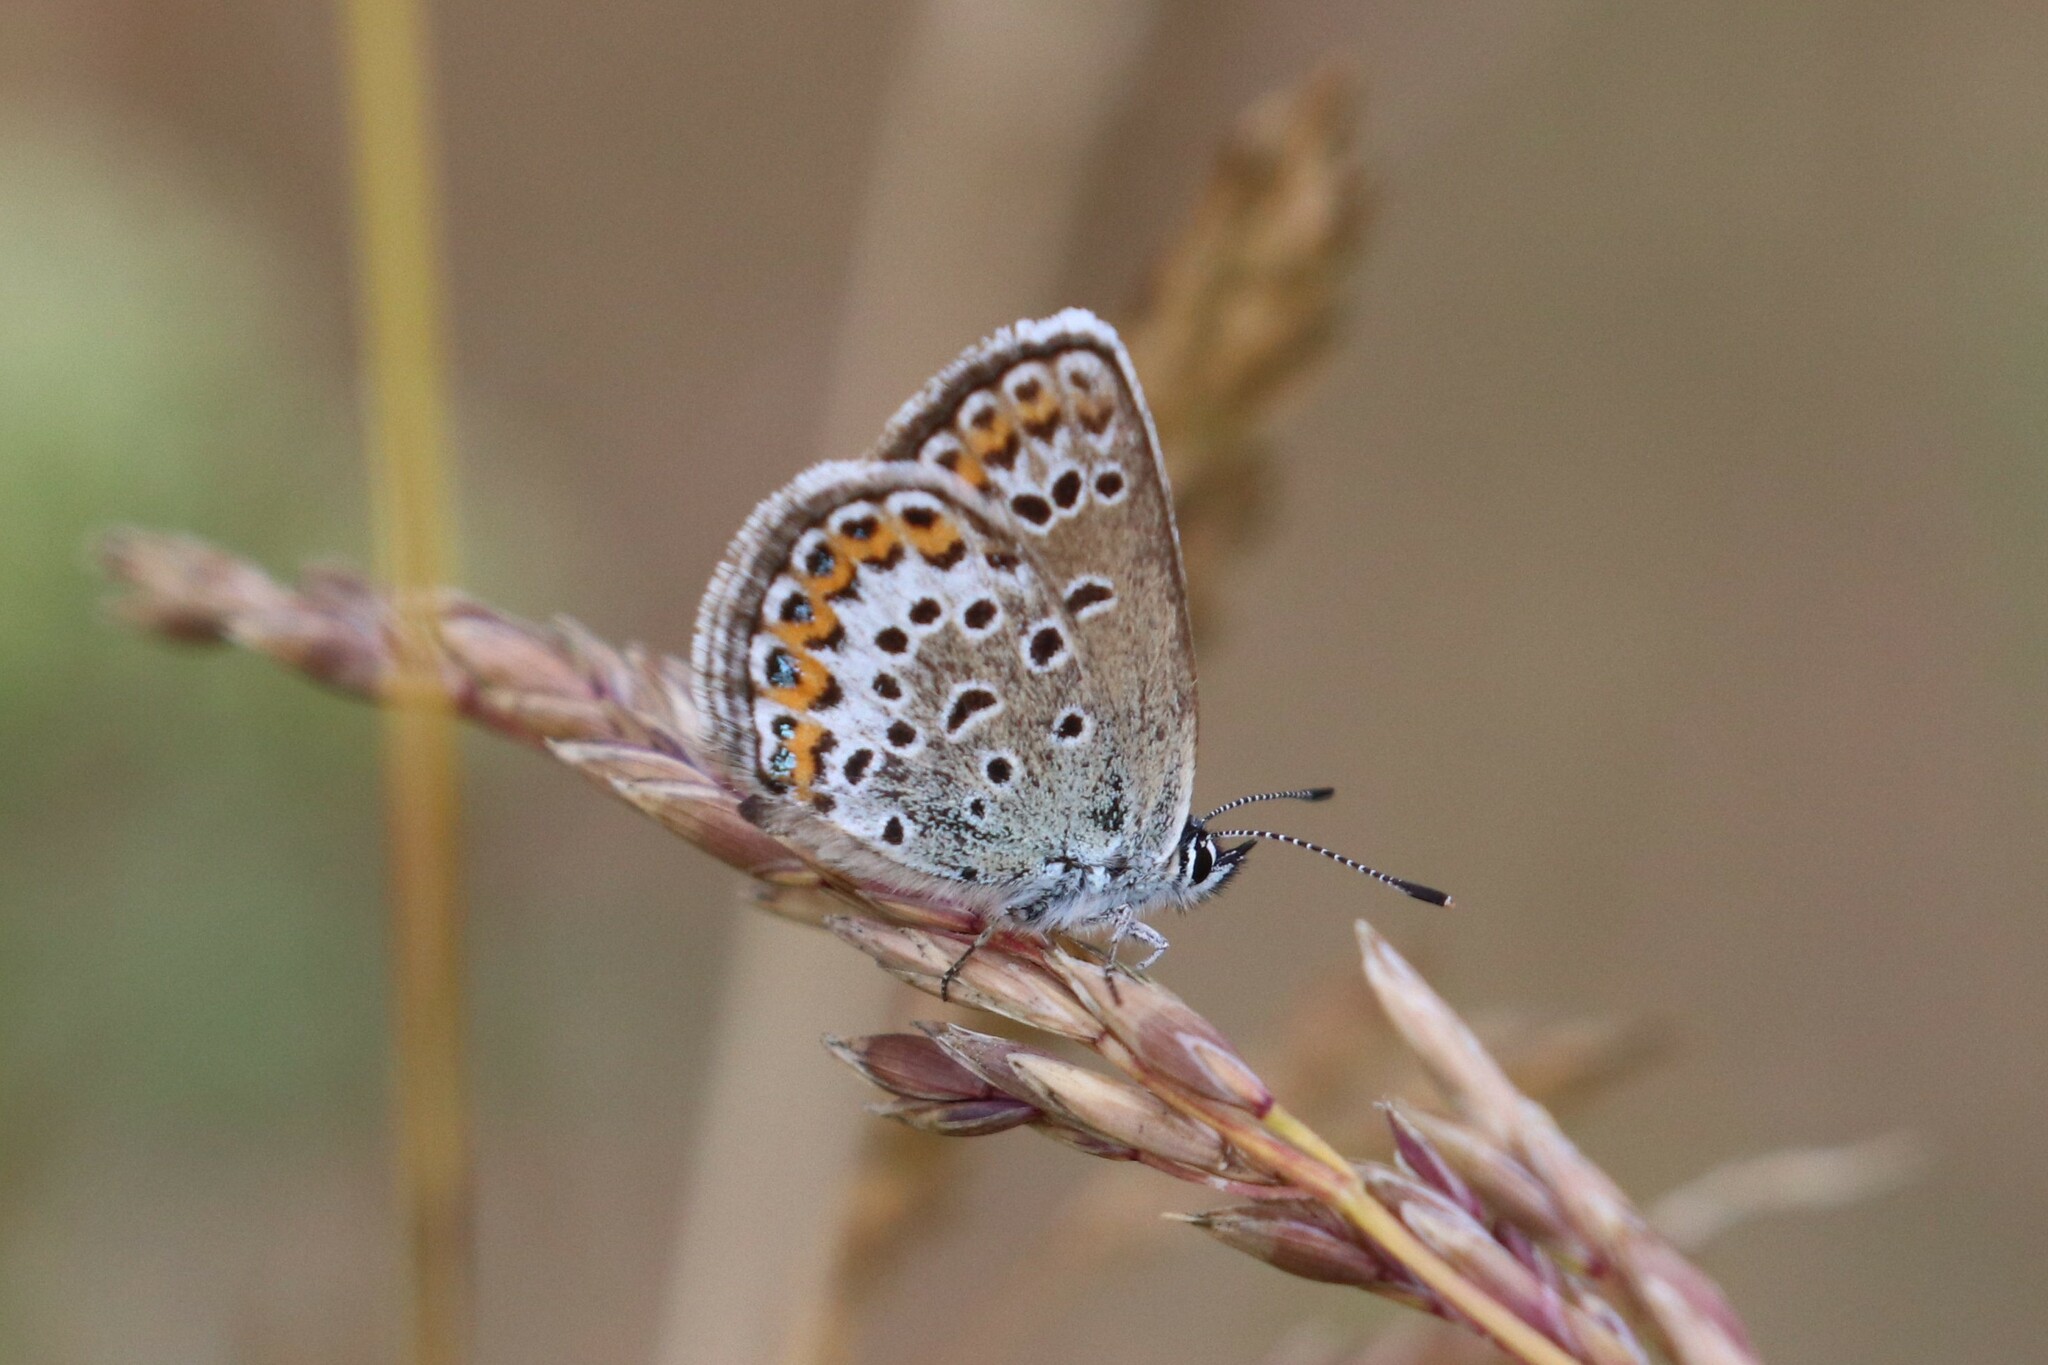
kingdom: Animalia
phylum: Arthropoda
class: Insecta
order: Lepidoptera
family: Lycaenidae
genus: Plebejus
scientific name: Plebejus argus
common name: Silver-studded blue
